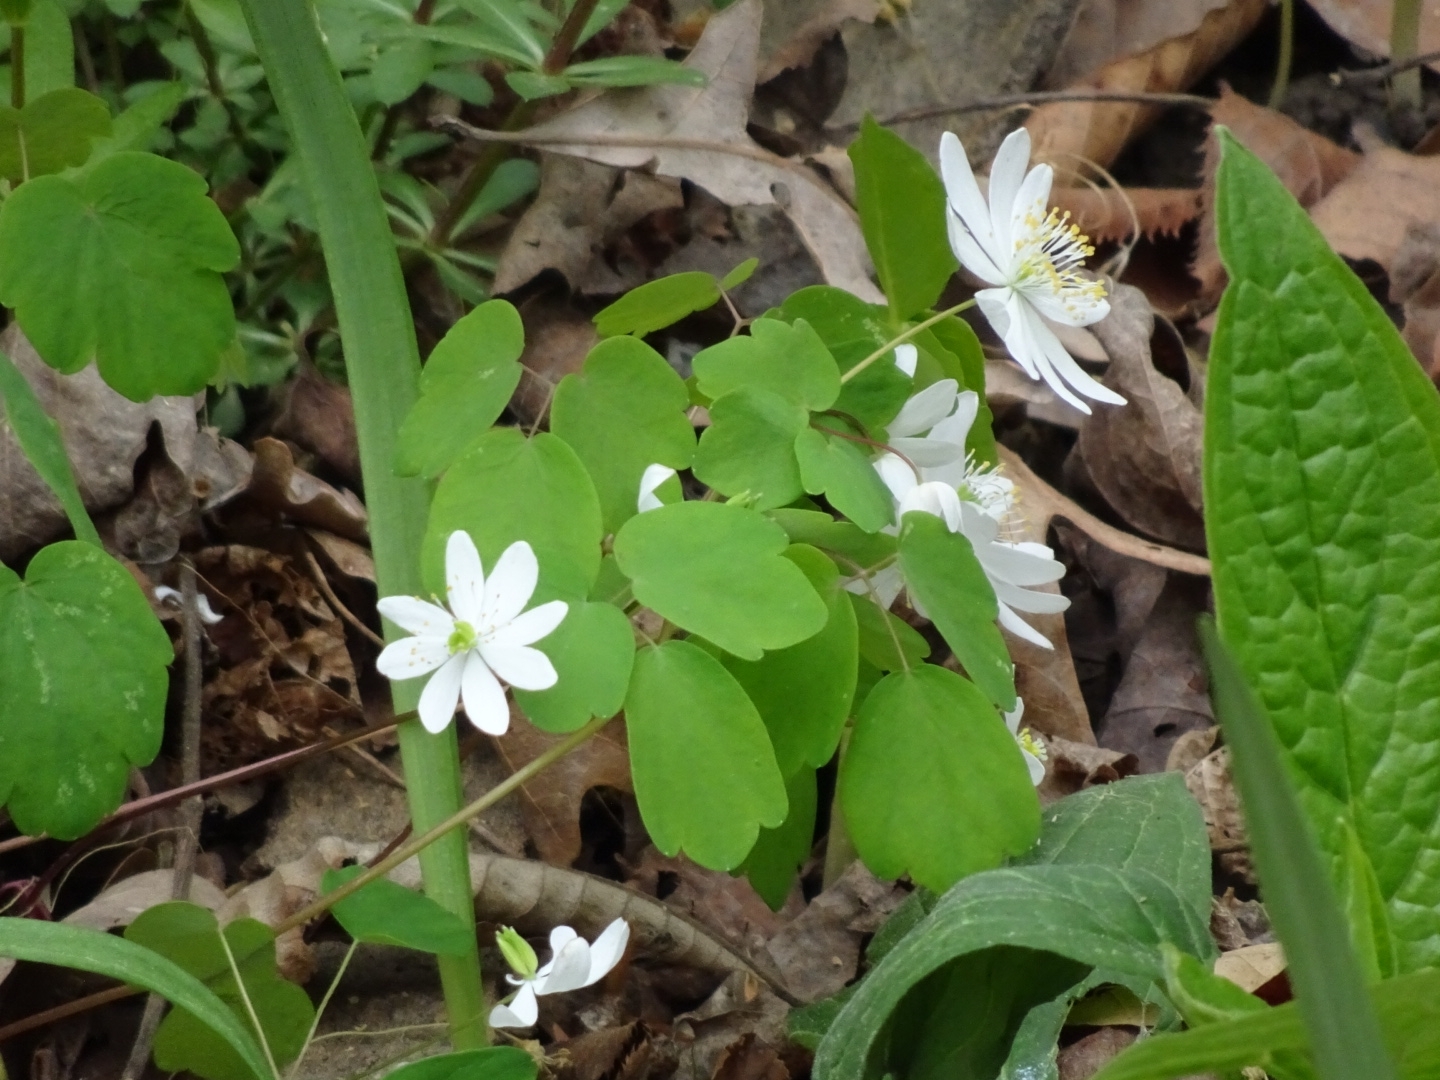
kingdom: Plantae
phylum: Tracheophyta
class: Magnoliopsida
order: Ranunculales
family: Ranunculaceae
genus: Thalictrum
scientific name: Thalictrum thalictroides
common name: Rue-anemone
